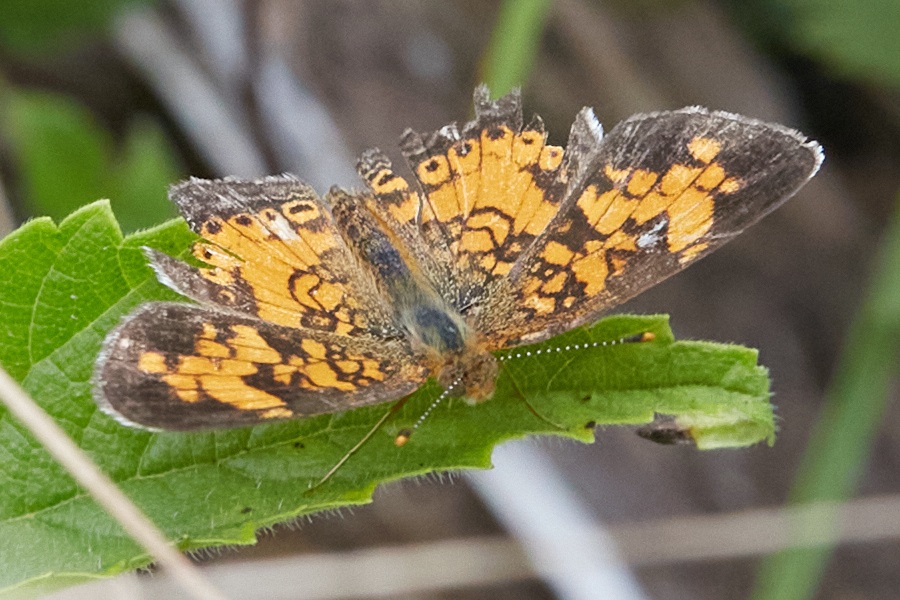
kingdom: Animalia
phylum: Arthropoda
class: Insecta
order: Lepidoptera
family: Nymphalidae
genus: Phyciodes
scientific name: Phyciodes tharos
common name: Pearl crescent
